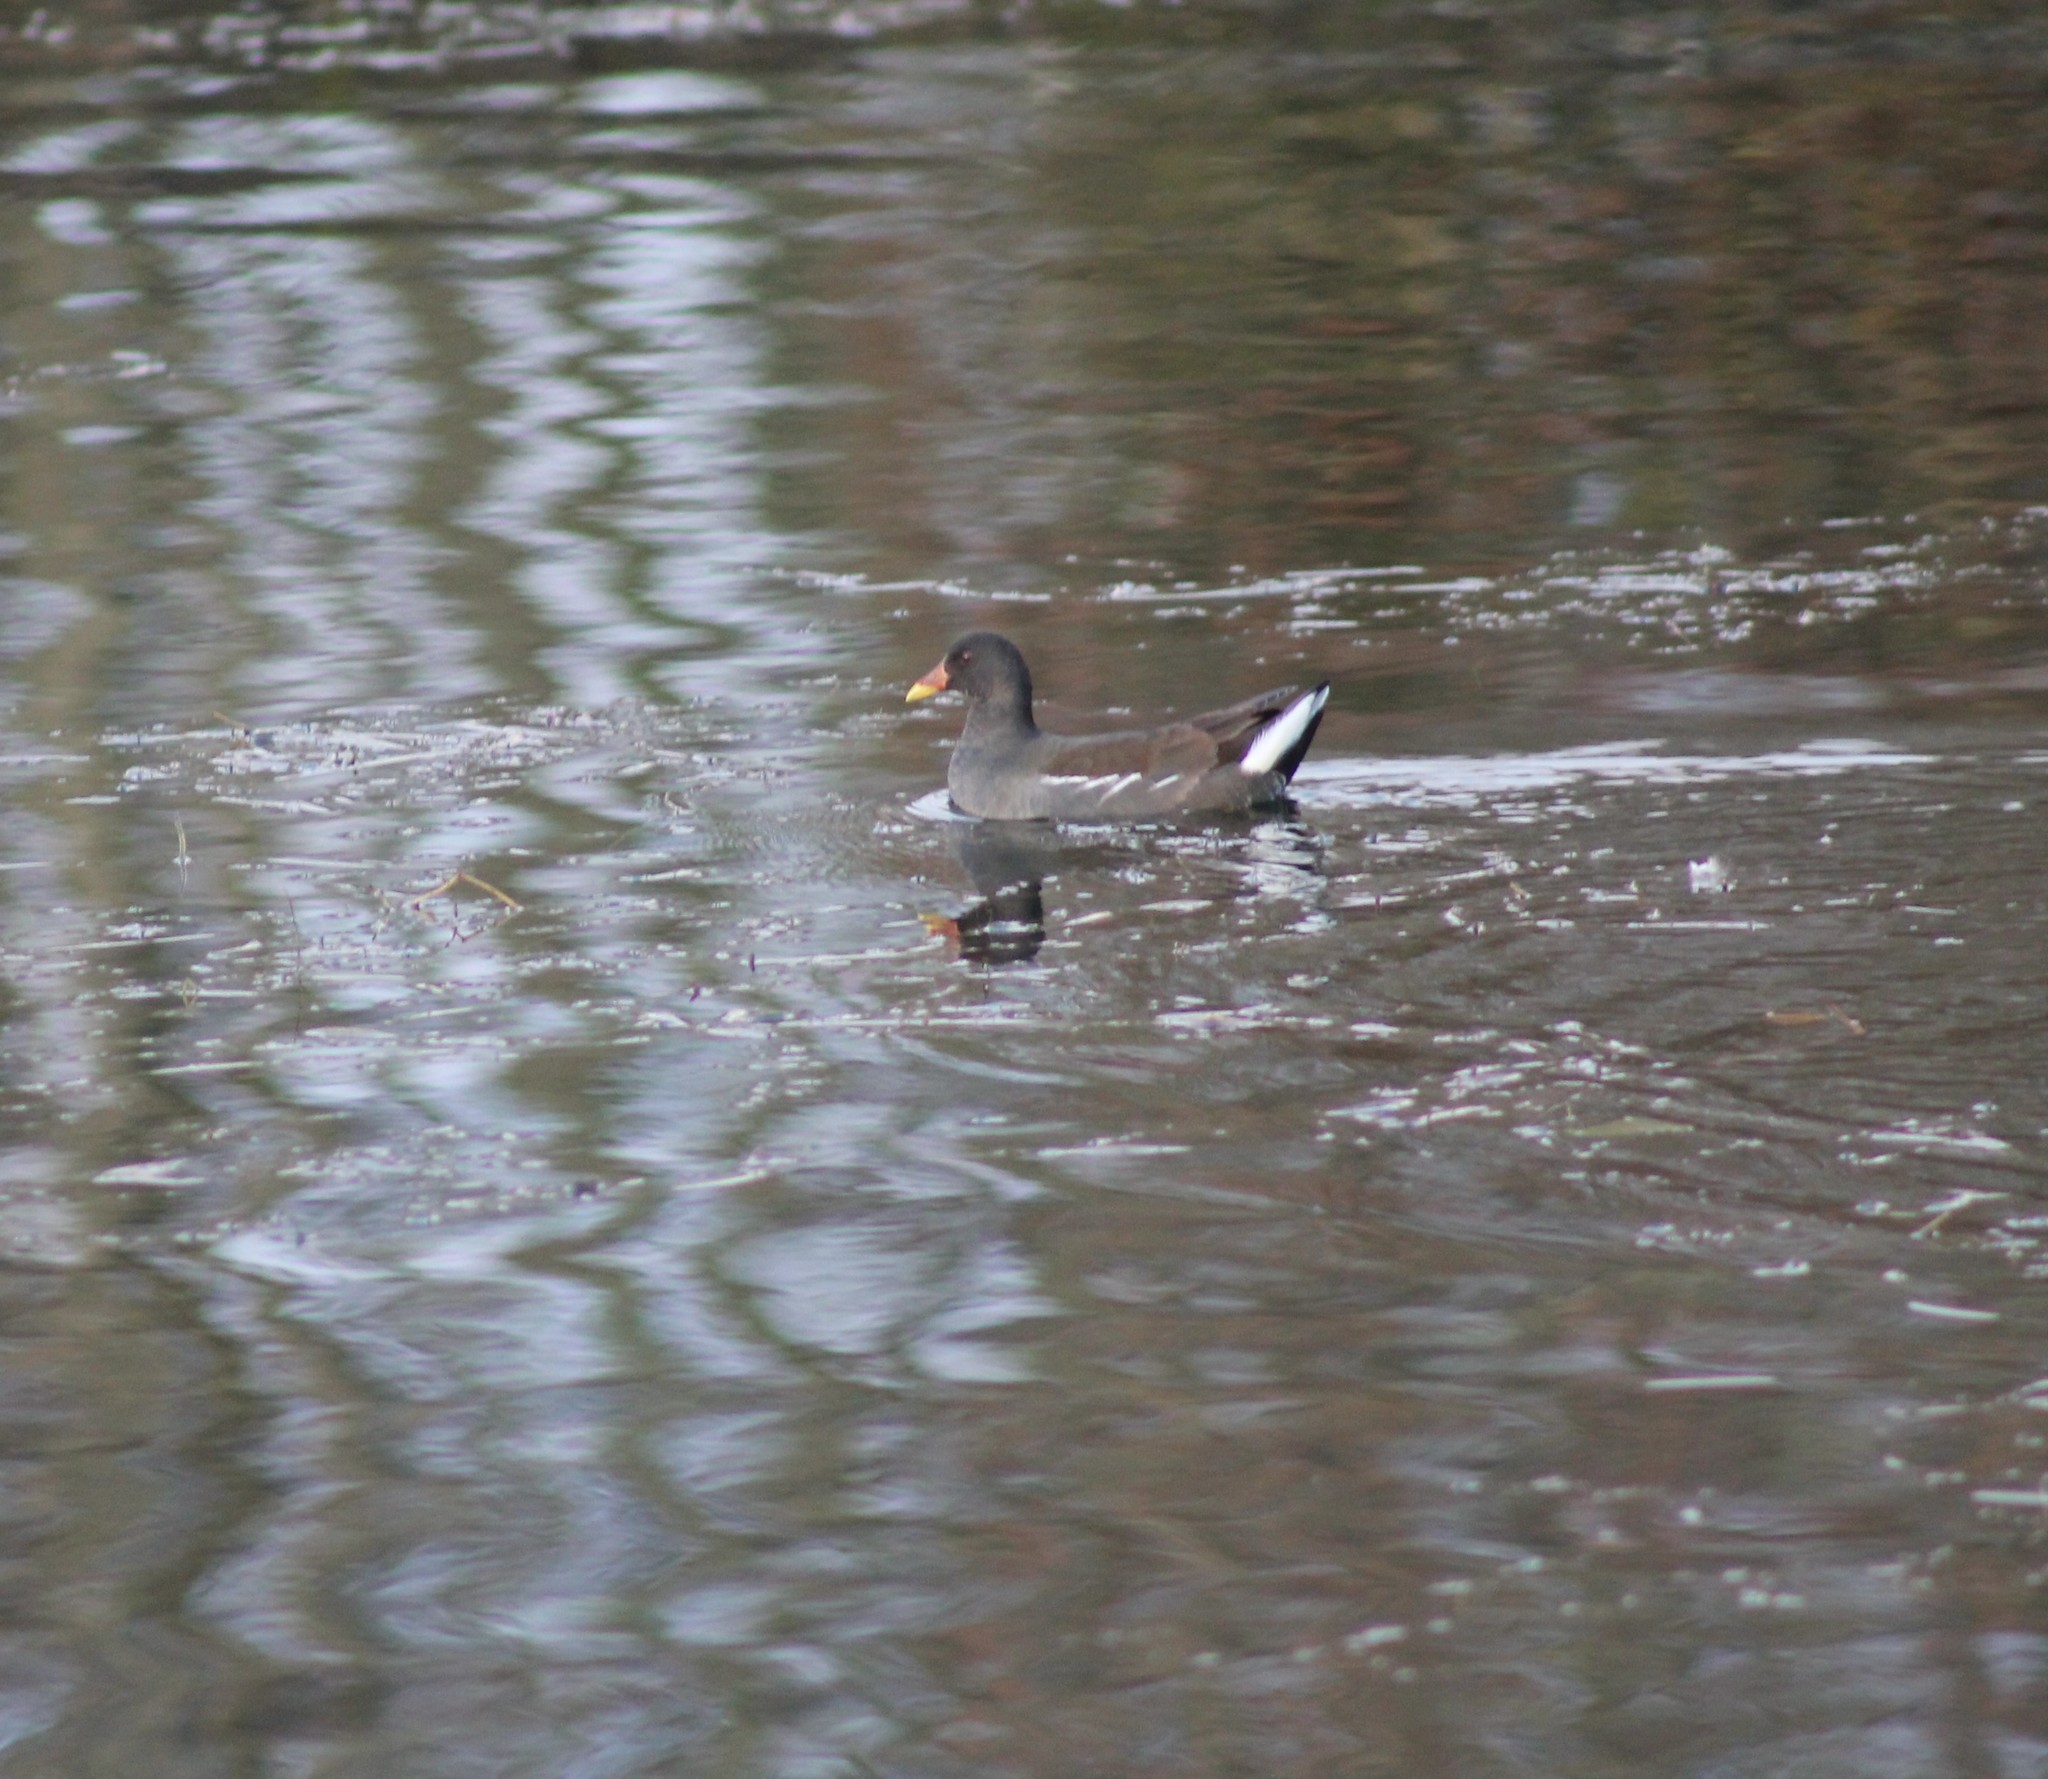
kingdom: Animalia
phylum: Chordata
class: Aves
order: Gruiformes
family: Rallidae
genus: Gallinula
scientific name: Gallinula chloropus
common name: Common moorhen
